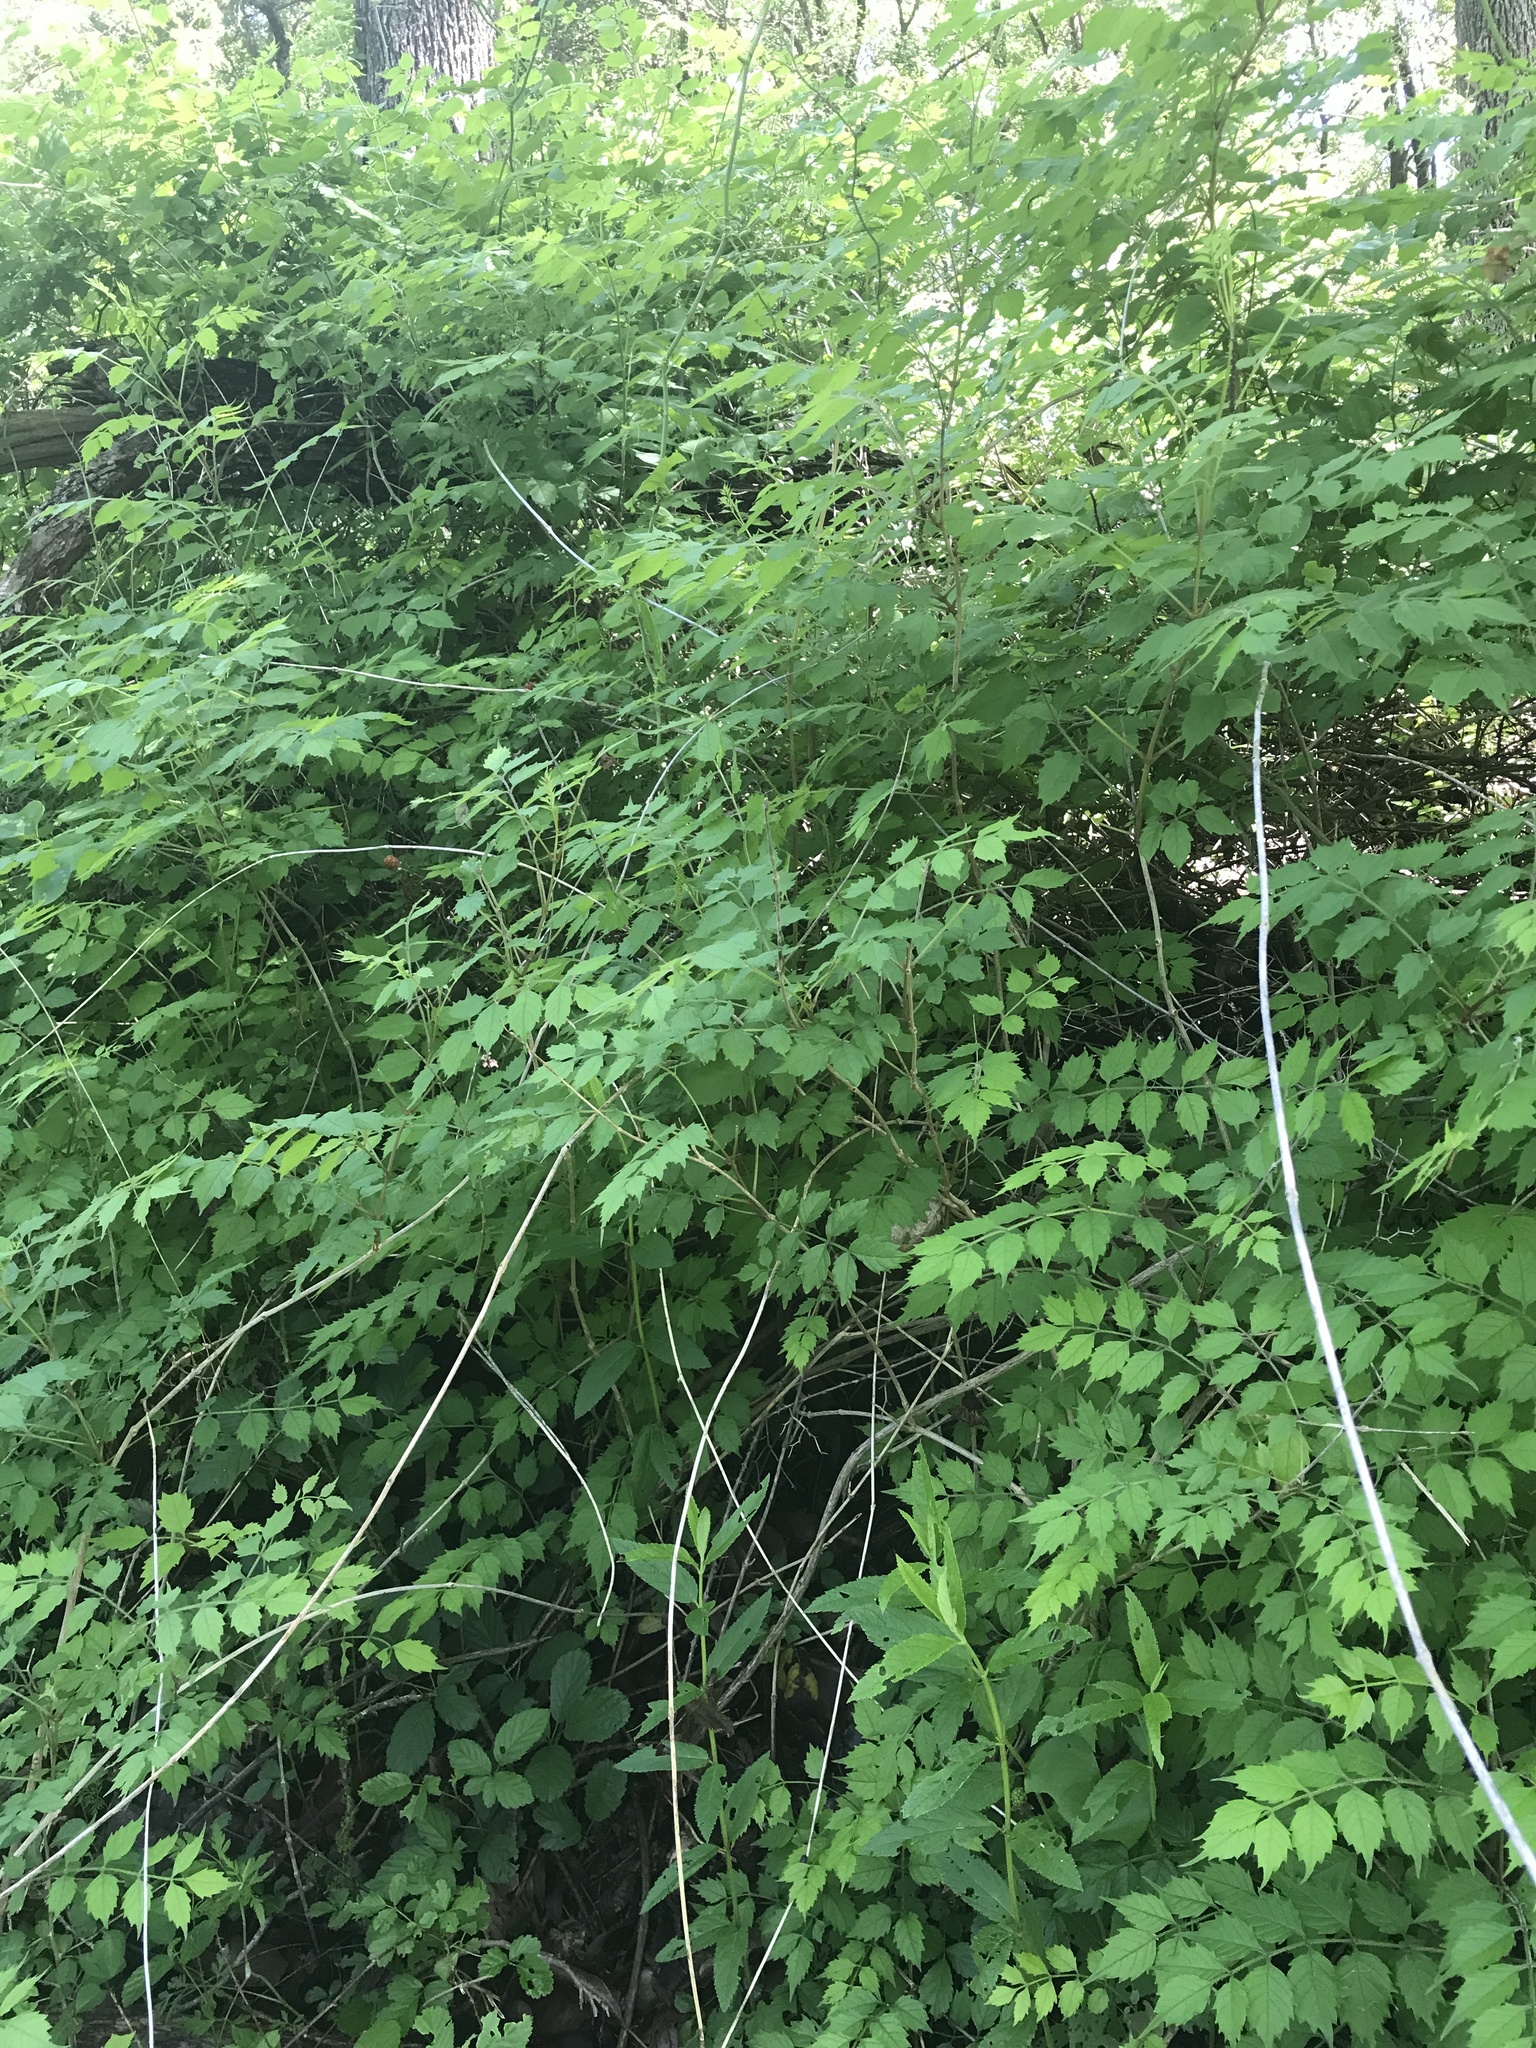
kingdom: Plantae
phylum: Tracheophyta
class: Magnoliopsida
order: Lamiales
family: Bignoniaceae
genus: Campsis
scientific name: Campsis radicans
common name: Trumpet-creeper
